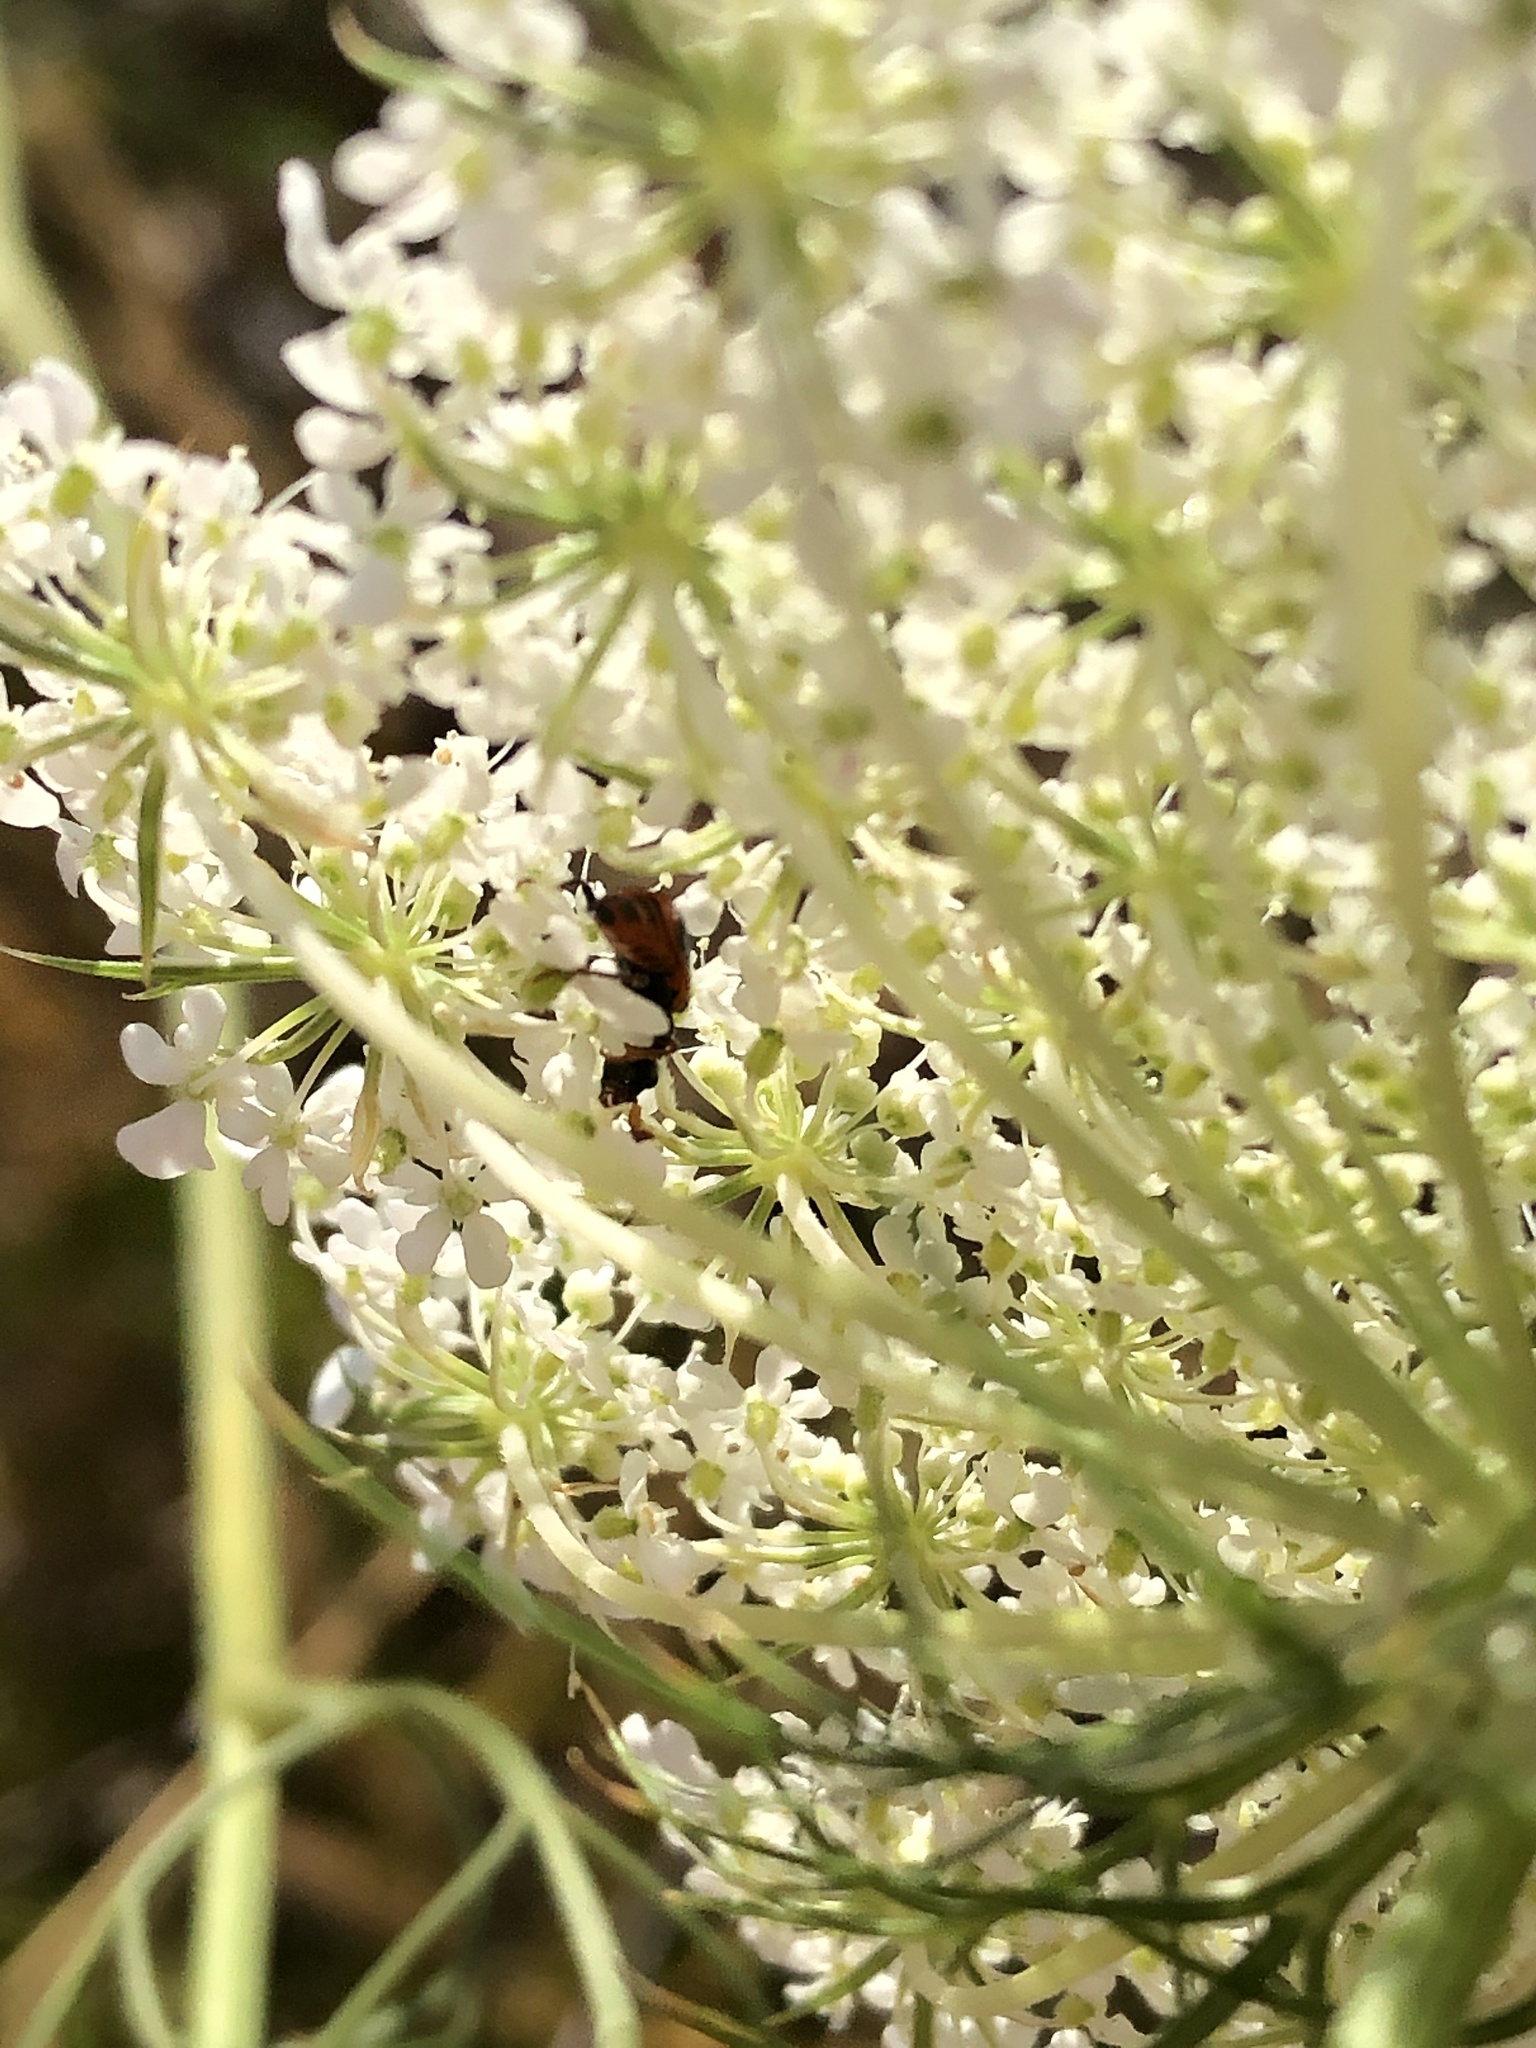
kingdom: Animalia
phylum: Arthropoda
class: Insecta
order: Coleoptera
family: Melyridae
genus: Collops
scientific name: Collops versatilis
